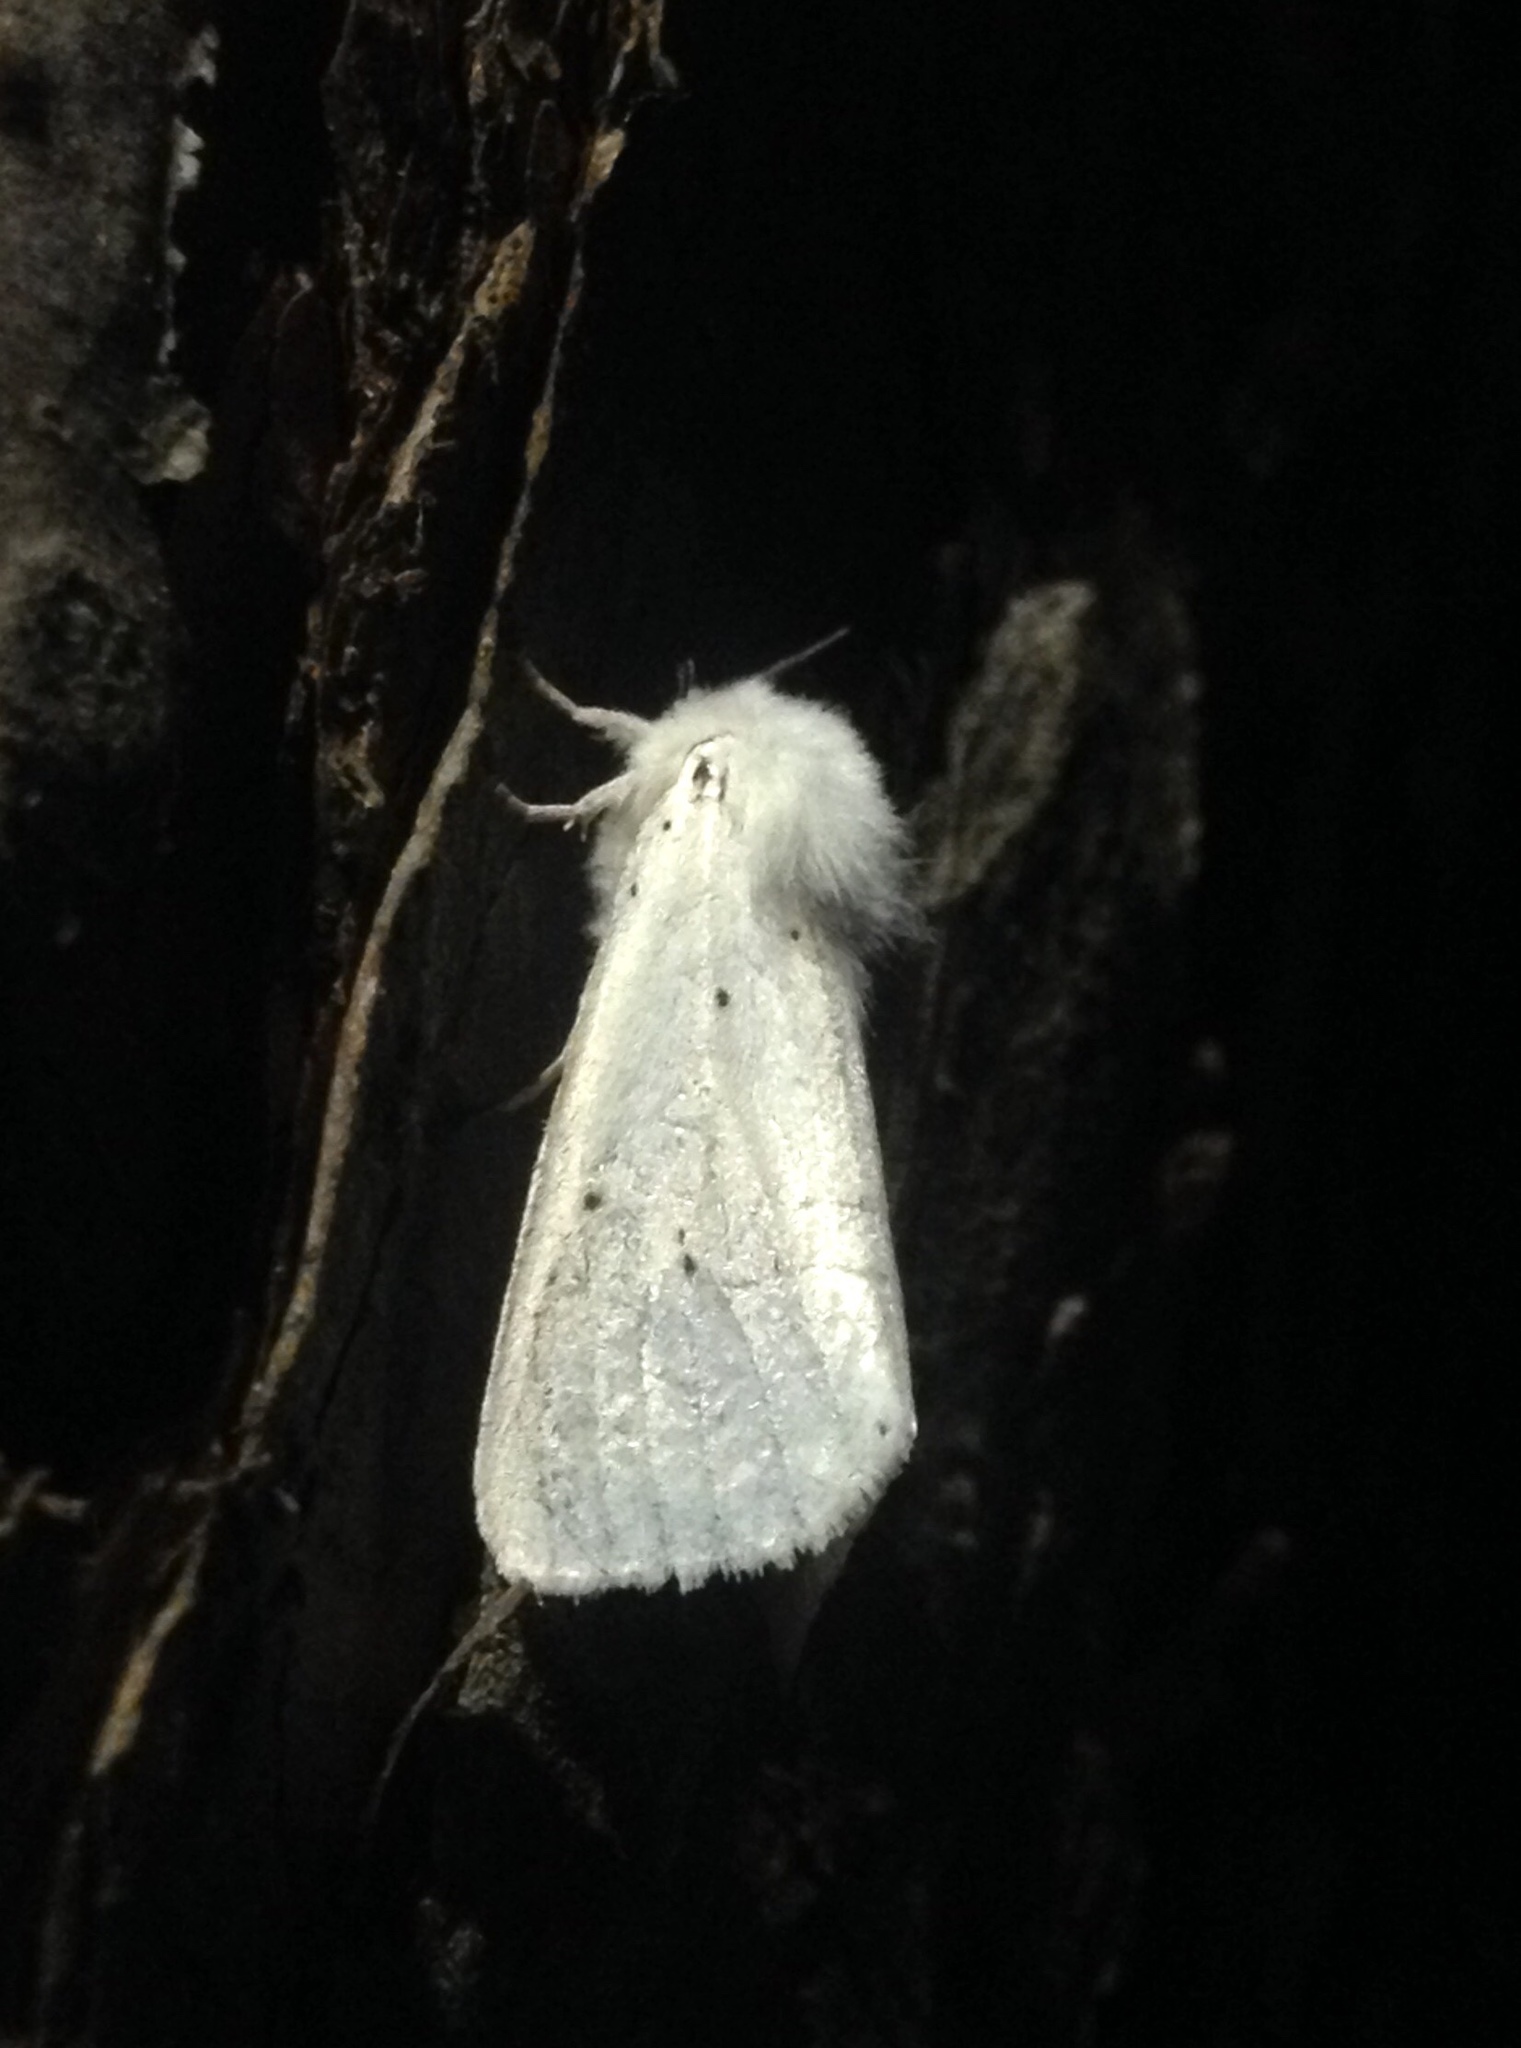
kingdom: Animalia
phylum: Arthropoda
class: Insecta
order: Lepidoptera
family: Erebidae
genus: Spilosoma
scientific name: Spilosoma lubricipeda
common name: White ermine
